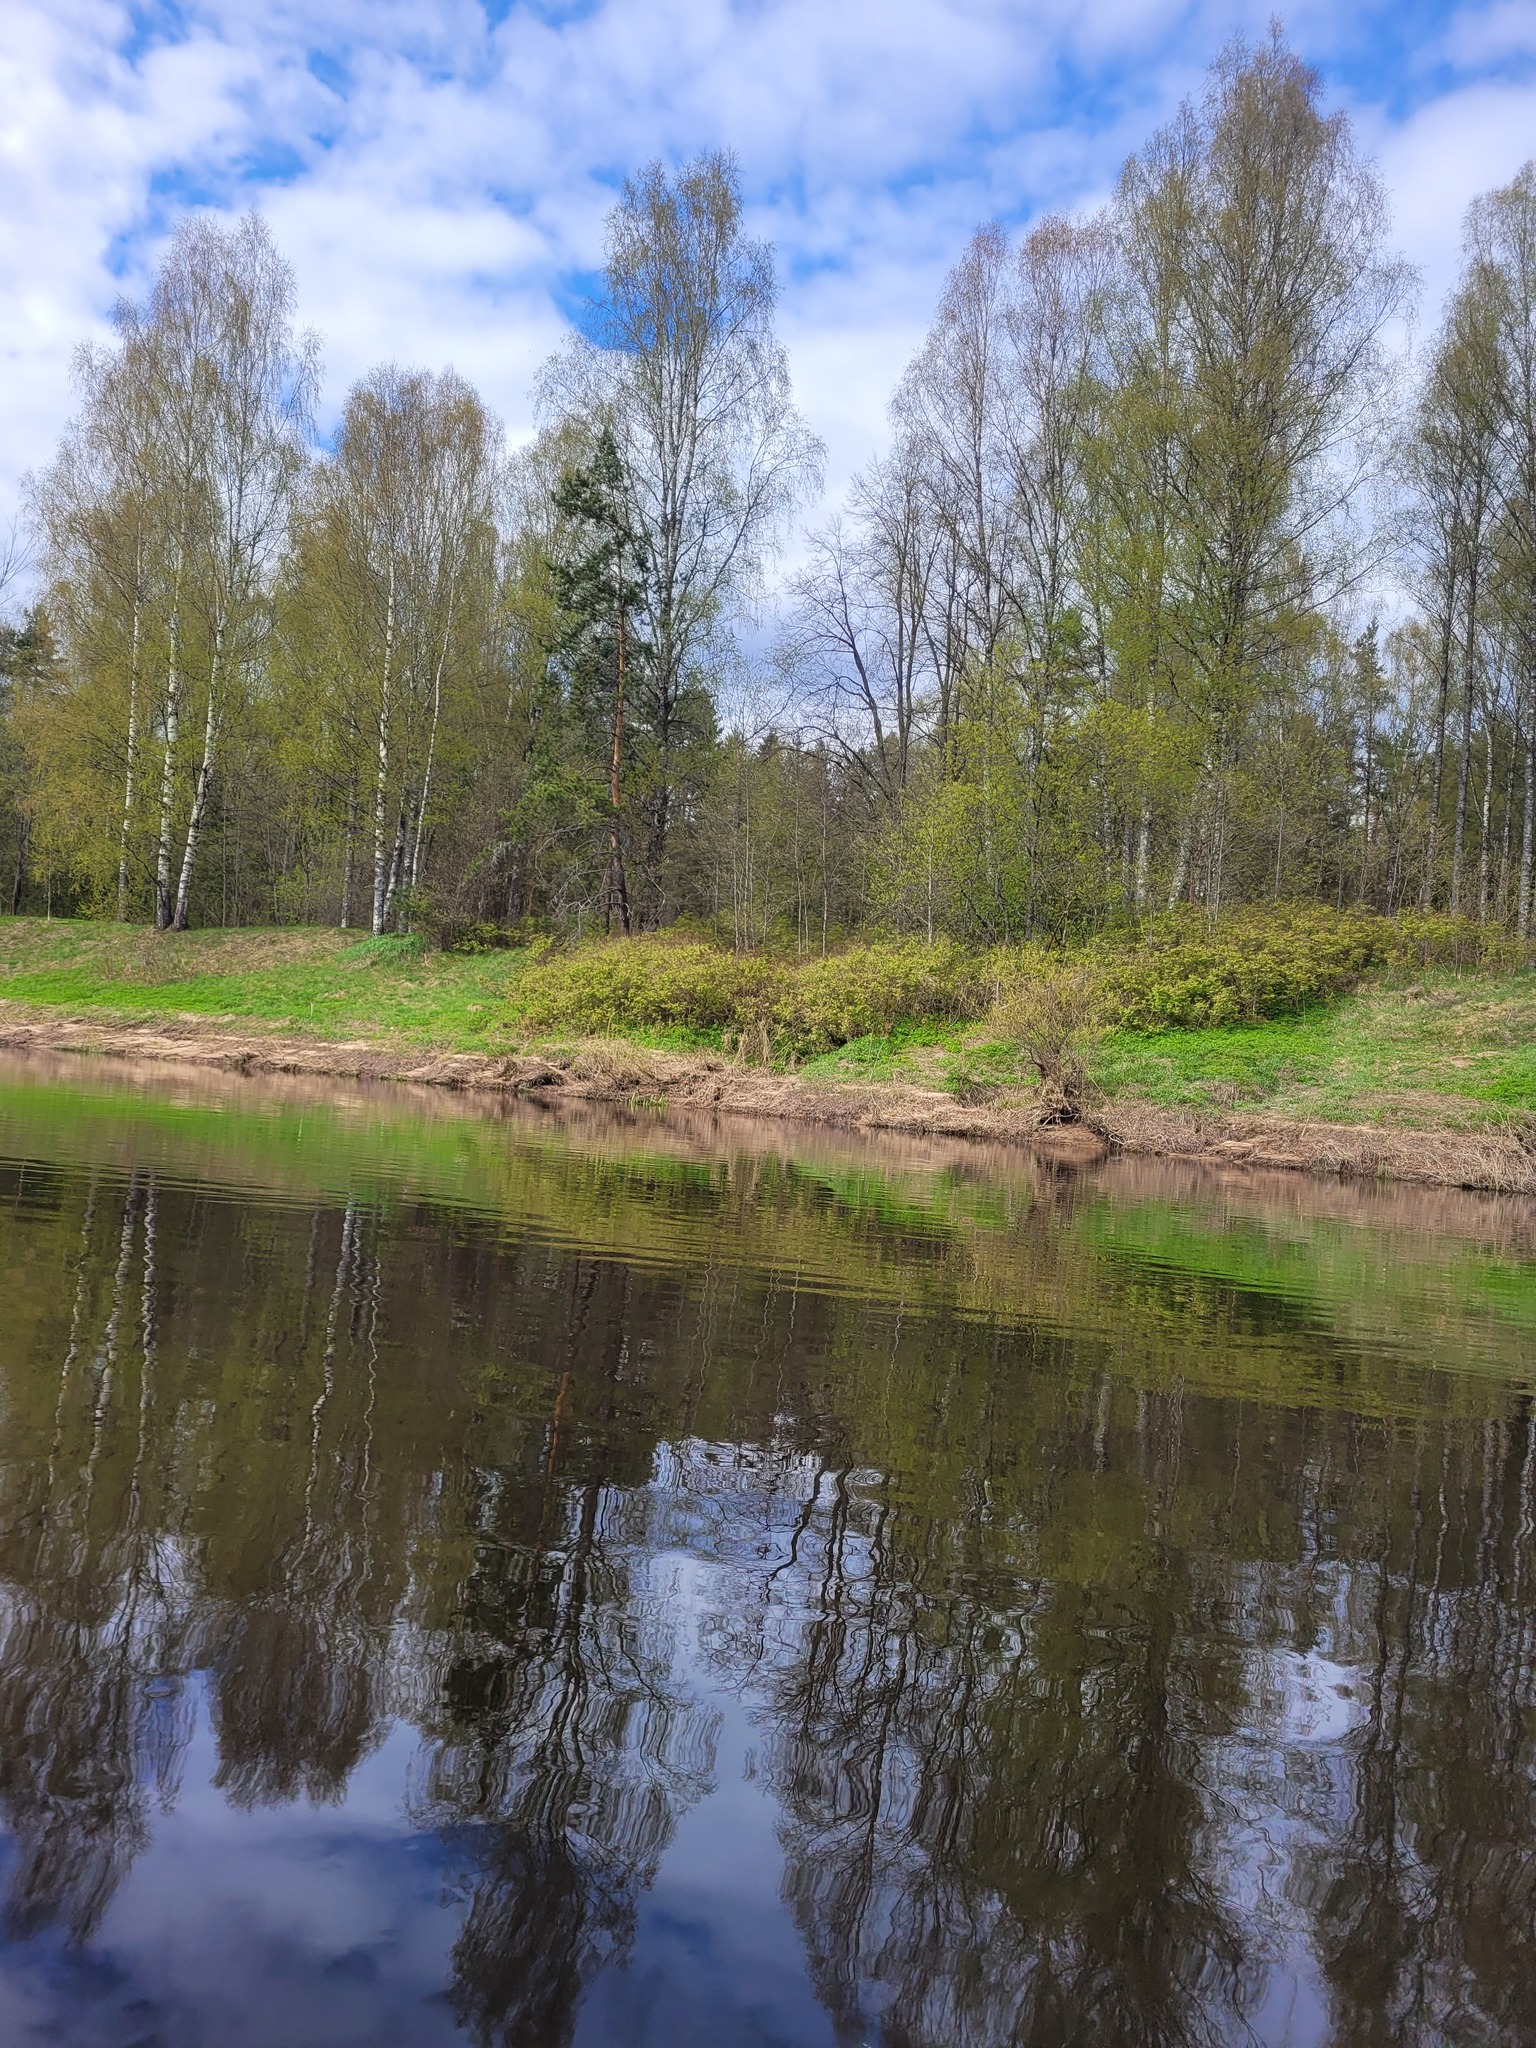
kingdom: Plantae
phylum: Tracheophyta
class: Magnoliopsida
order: Rosales
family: Rosaceae
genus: Sorbaria
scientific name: Sorbaria sorbifolia
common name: False spiraea
